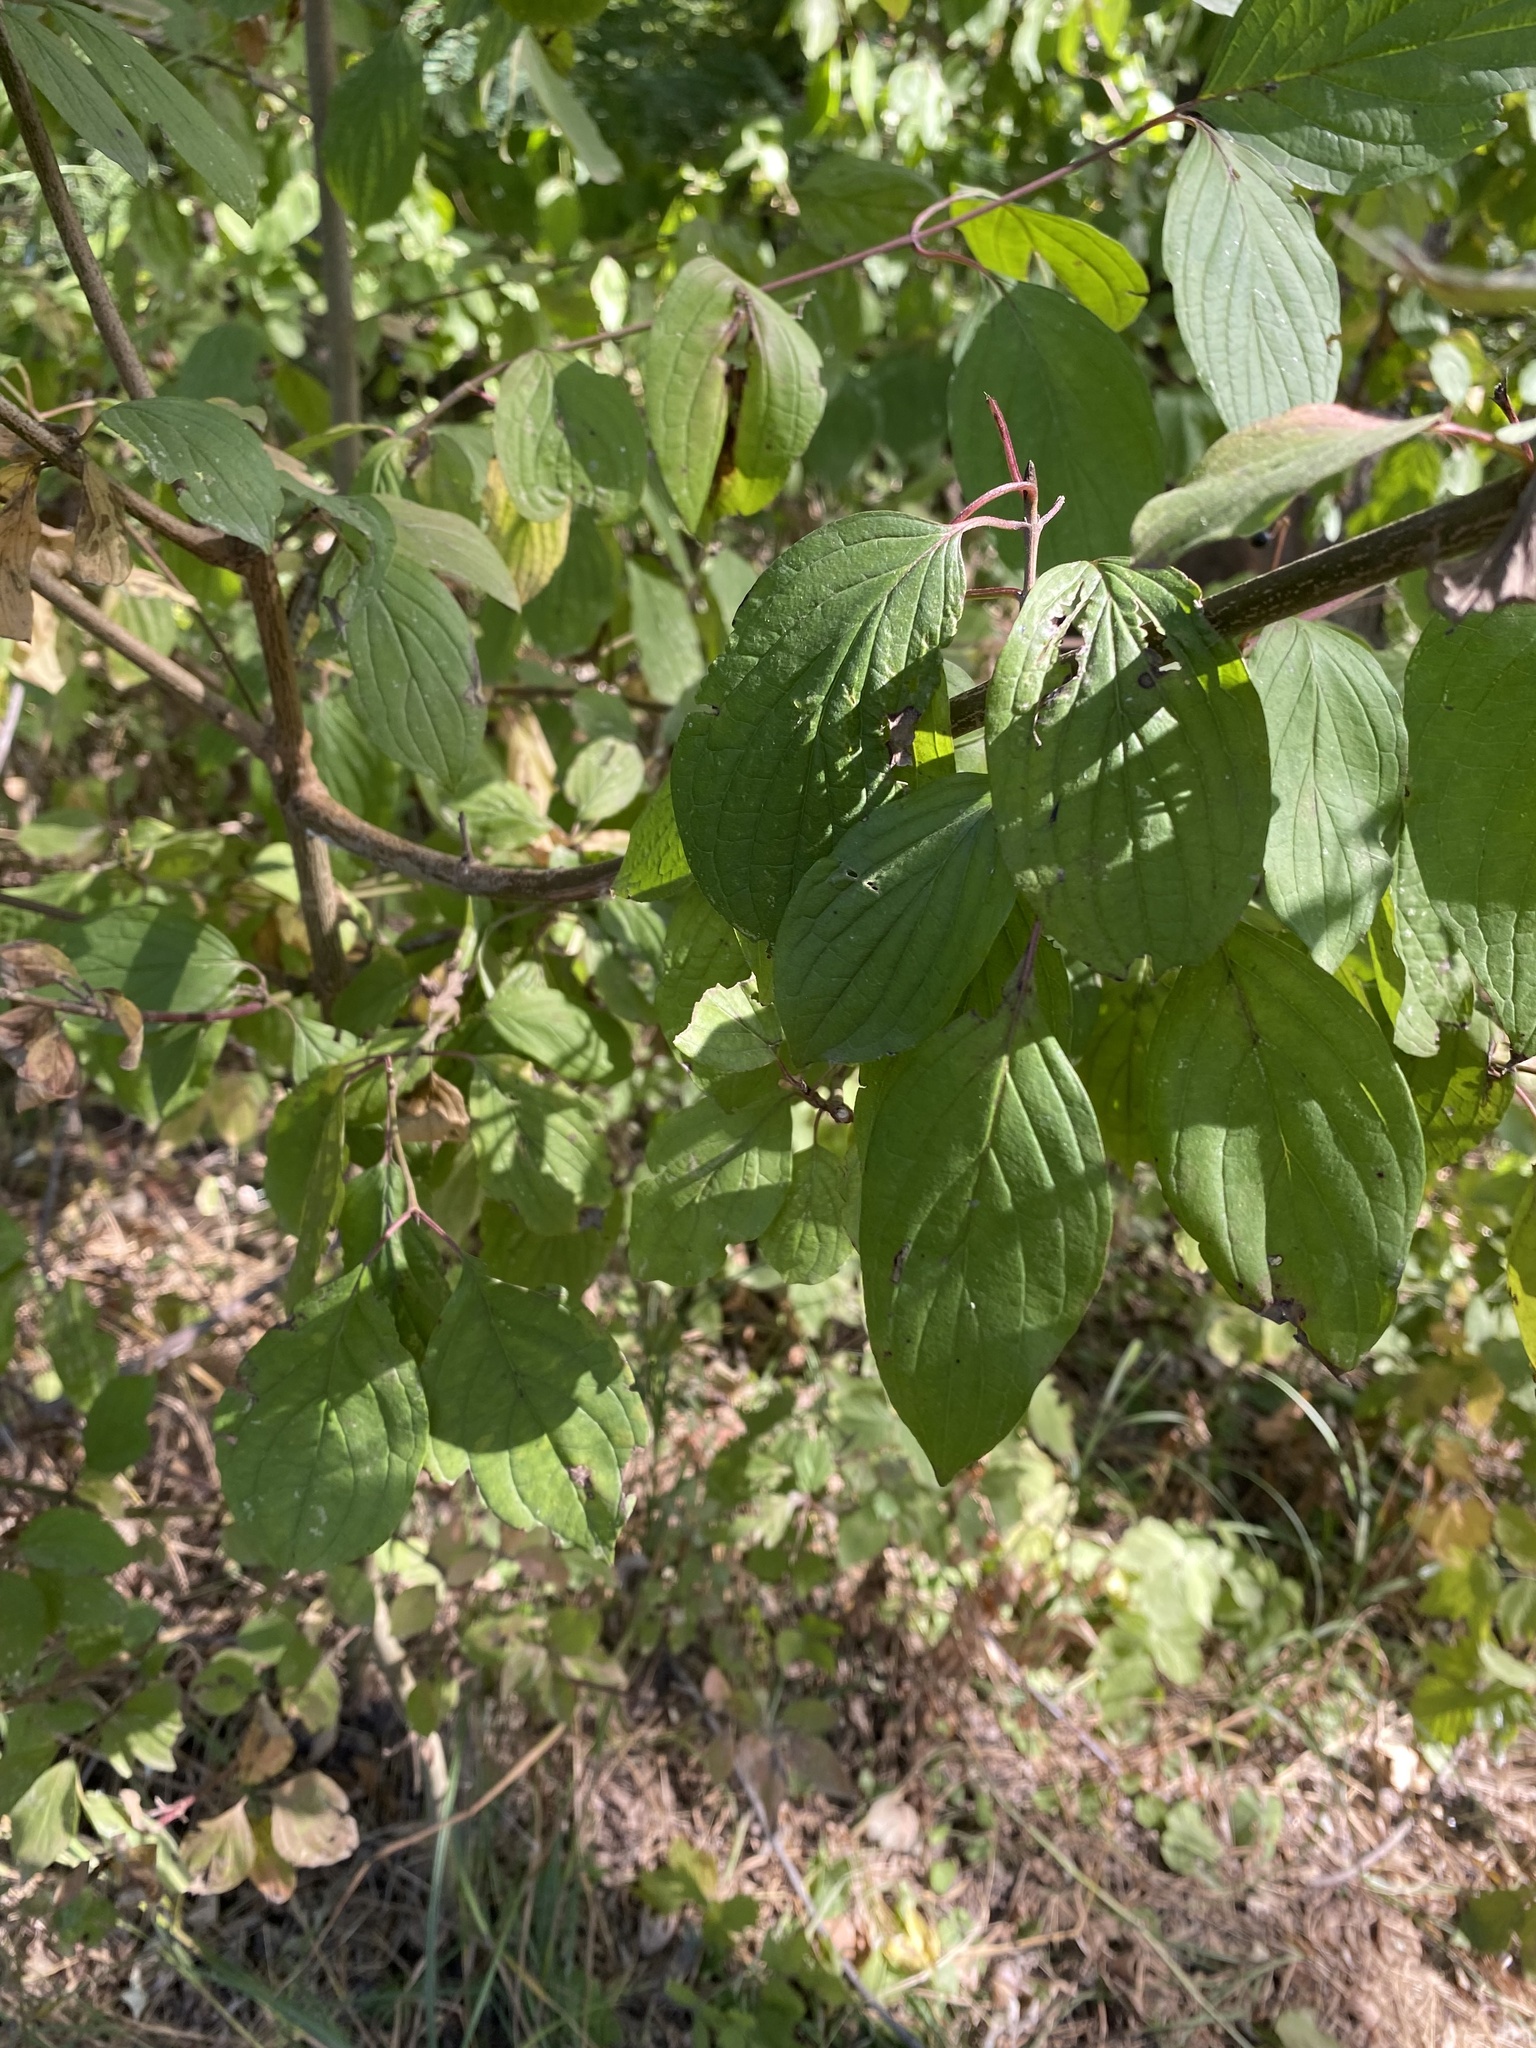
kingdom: Plantae
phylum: Tracheophyta
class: Magnoliopsida
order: Cornales
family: Cornaceae
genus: Cornus
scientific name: Cornus sanguinea
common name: Dogwood
